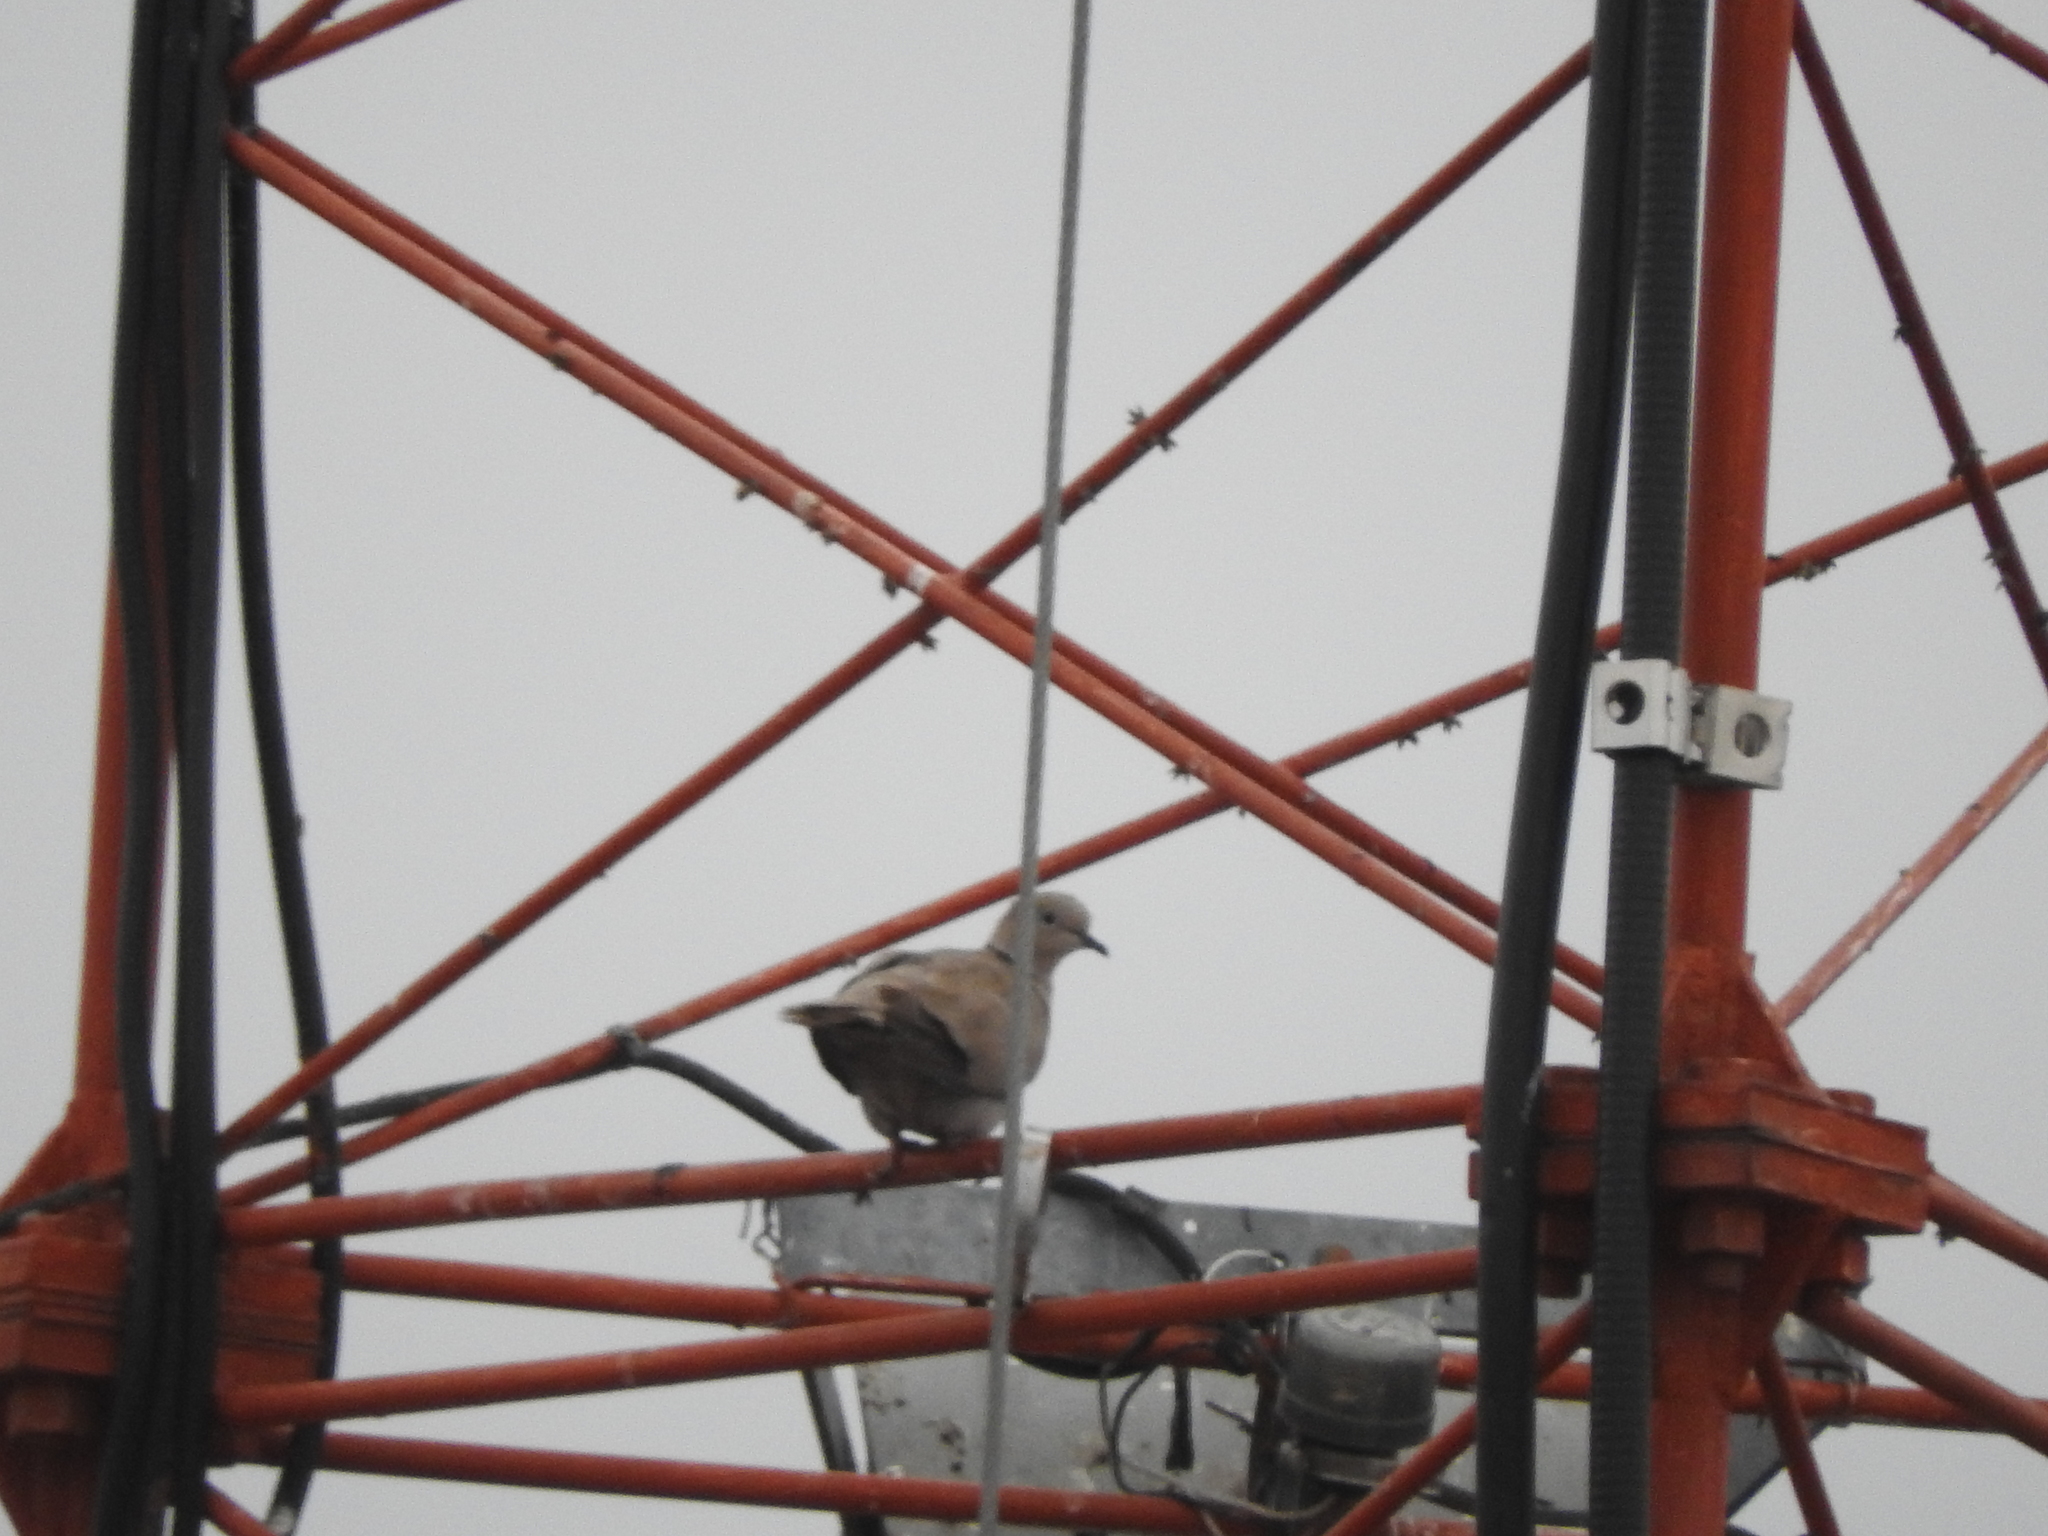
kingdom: Animalia
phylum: Chordata
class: Aves
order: Columbiformes
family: Columbidae
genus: Streptopelia
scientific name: Streptopelia decaocto
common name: Eurasian collared dove
